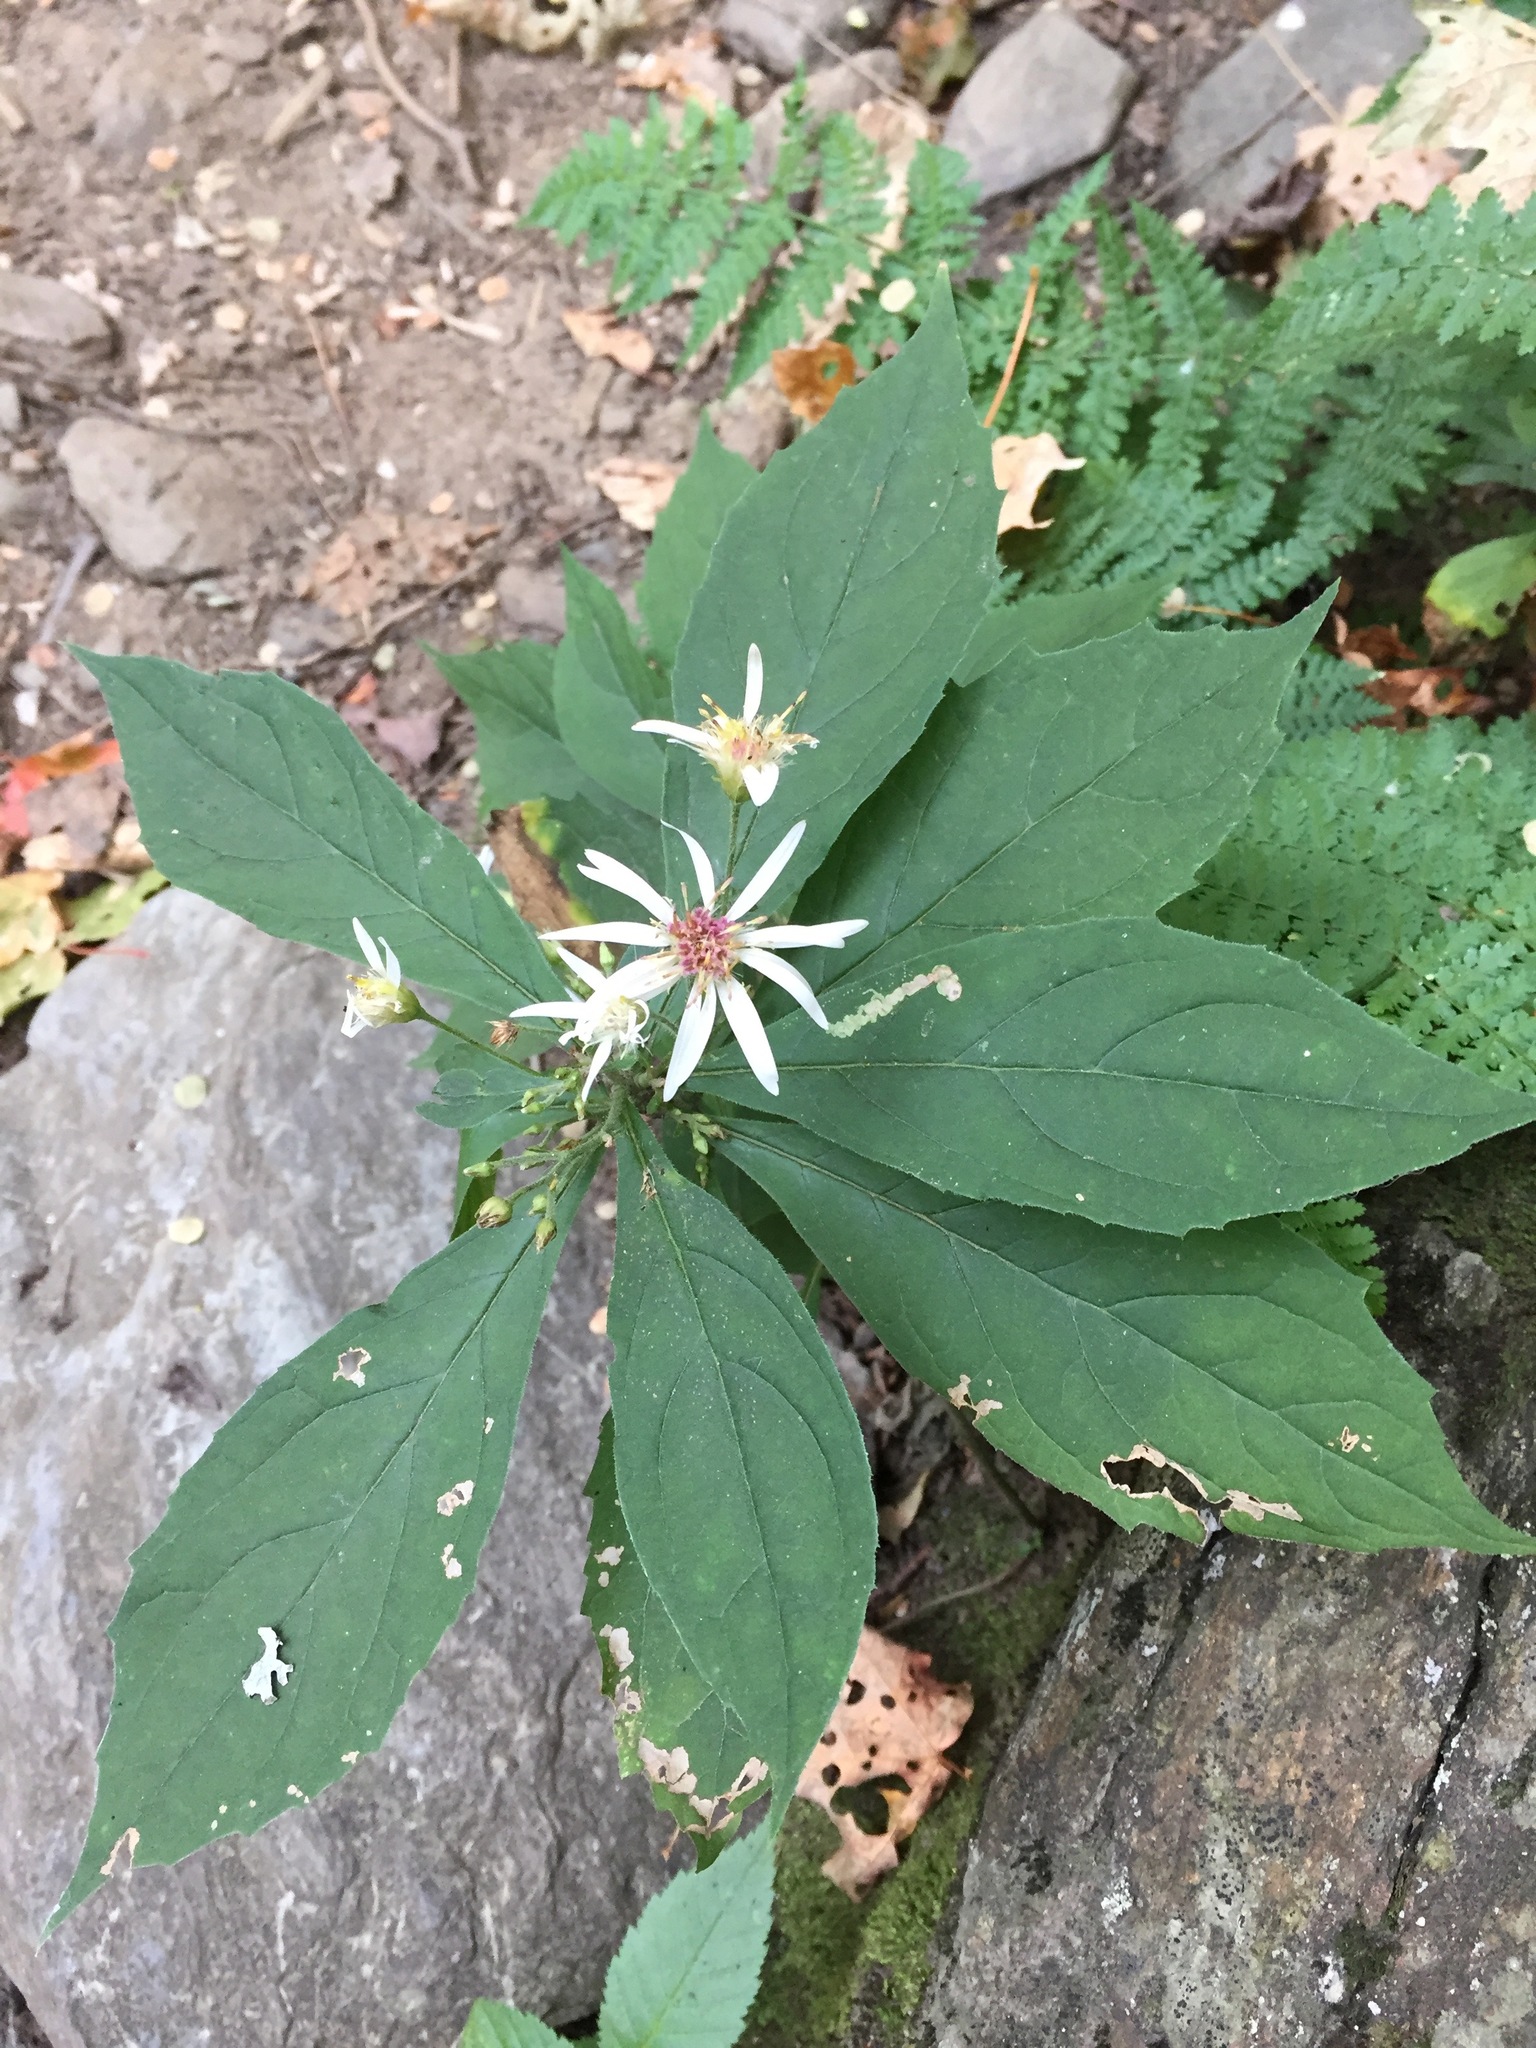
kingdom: Plantae
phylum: Tracheophyta
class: Magnoliopsida
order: Asterales
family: Asteraceae
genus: Oclemena
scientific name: Oclemena acuminata
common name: Mountain aster
